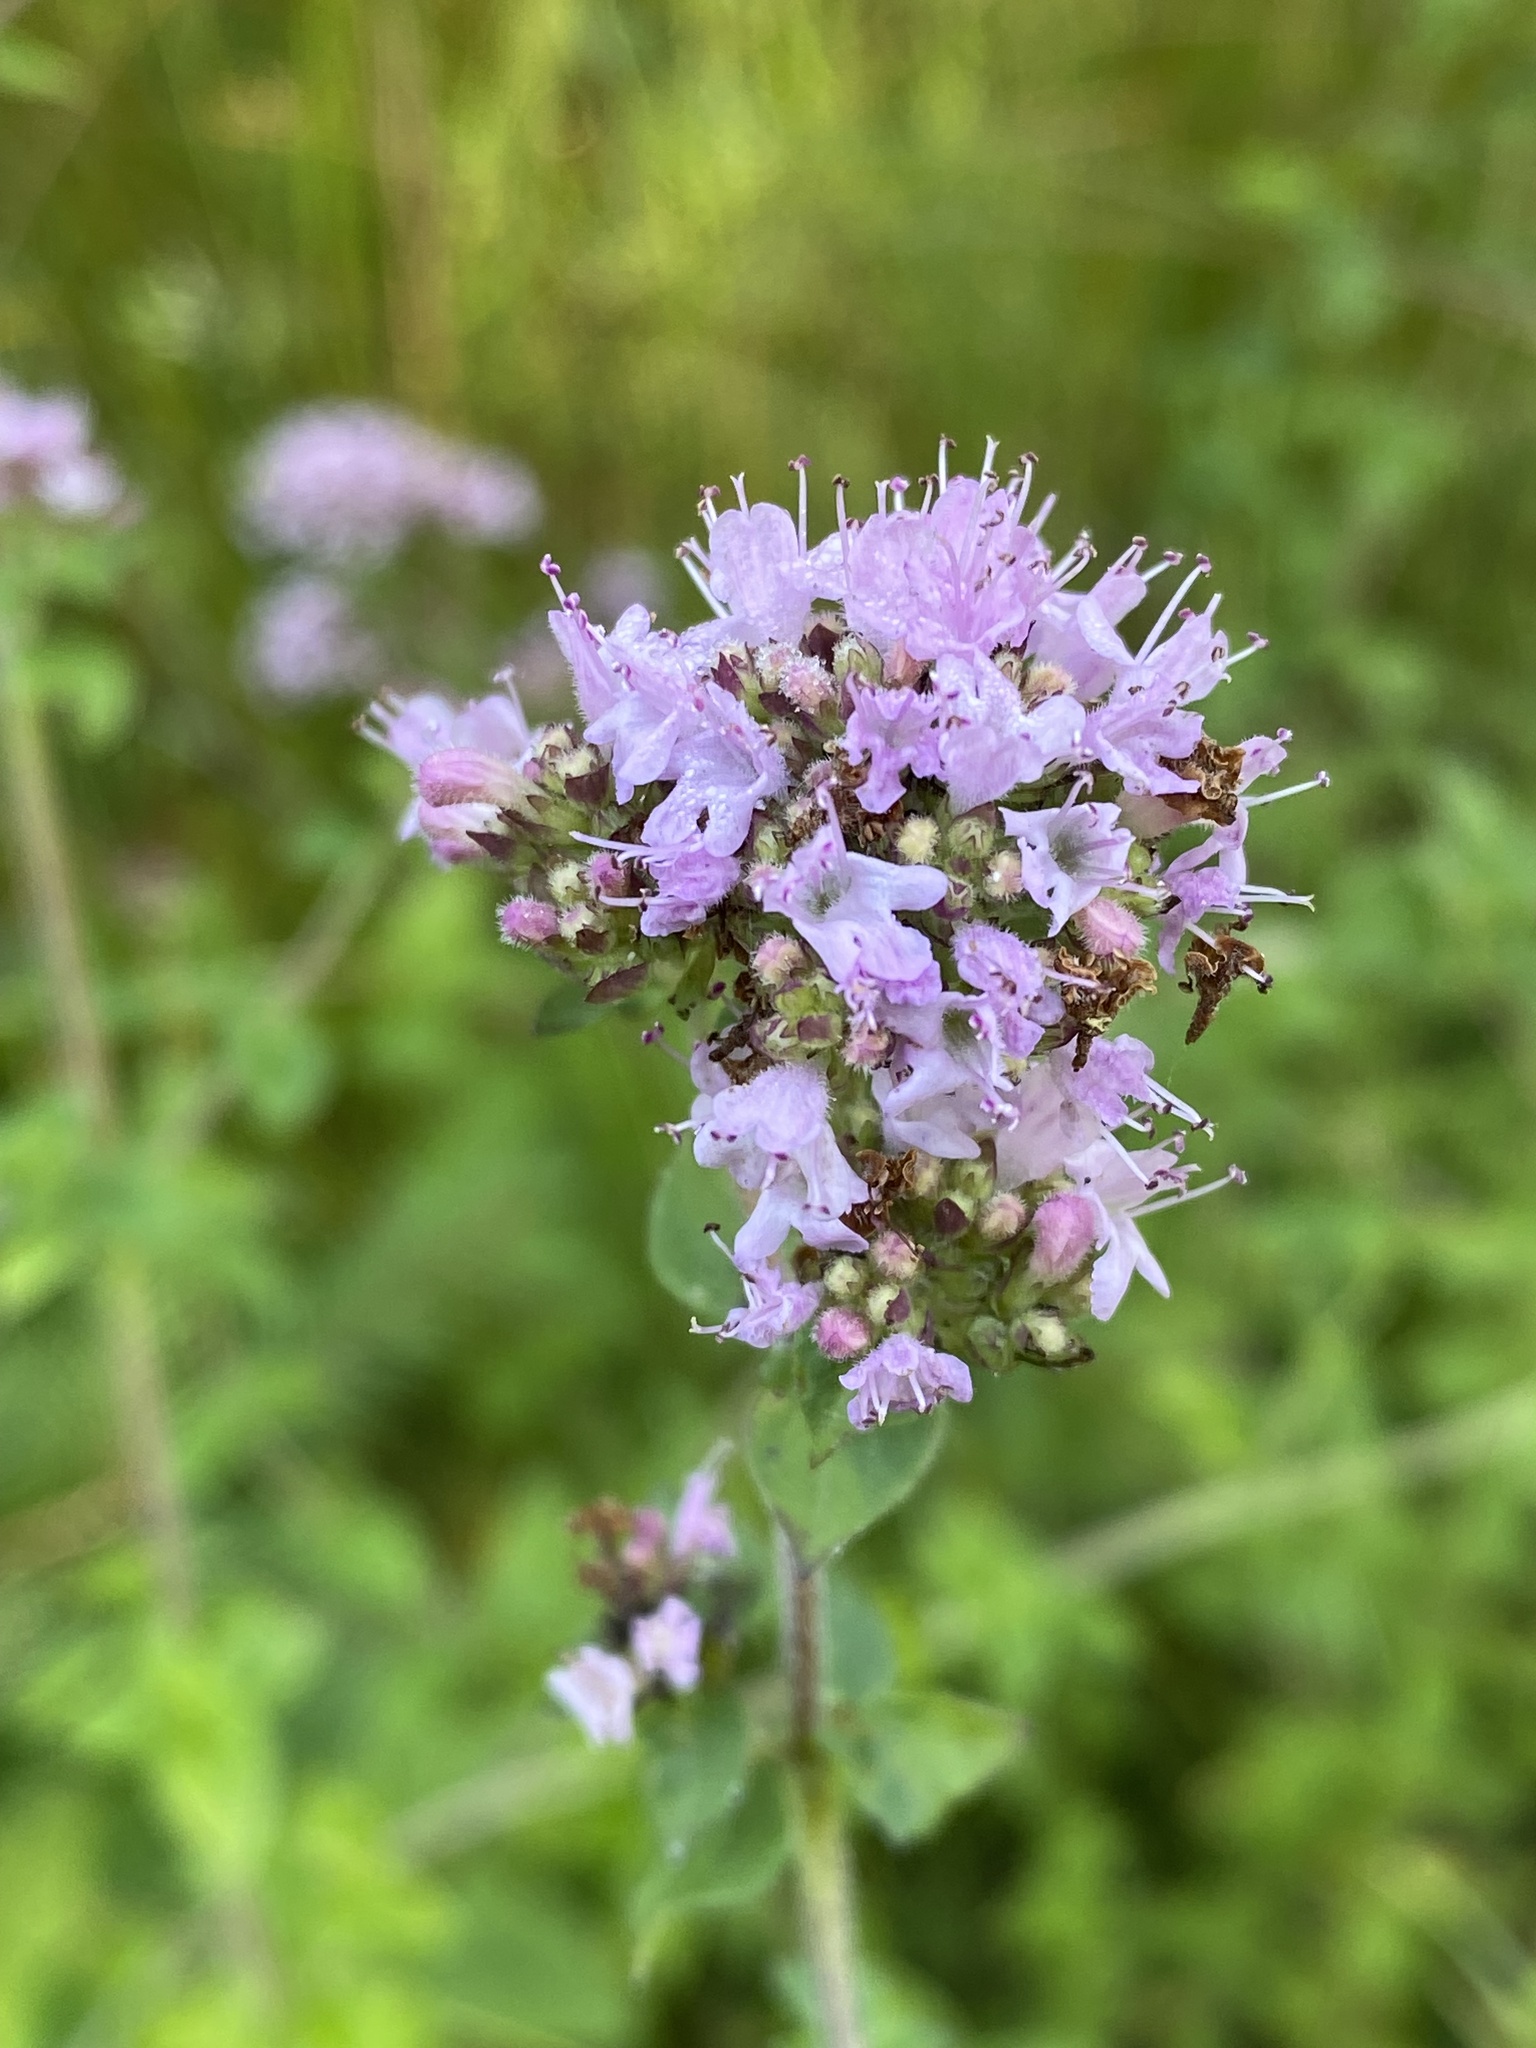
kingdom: Plantae
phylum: Tracheophyta
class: Magnoliopsida
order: Lamiales
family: Lamiaceae
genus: Origanum
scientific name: Origanum vulgare
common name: Wild marjoram
